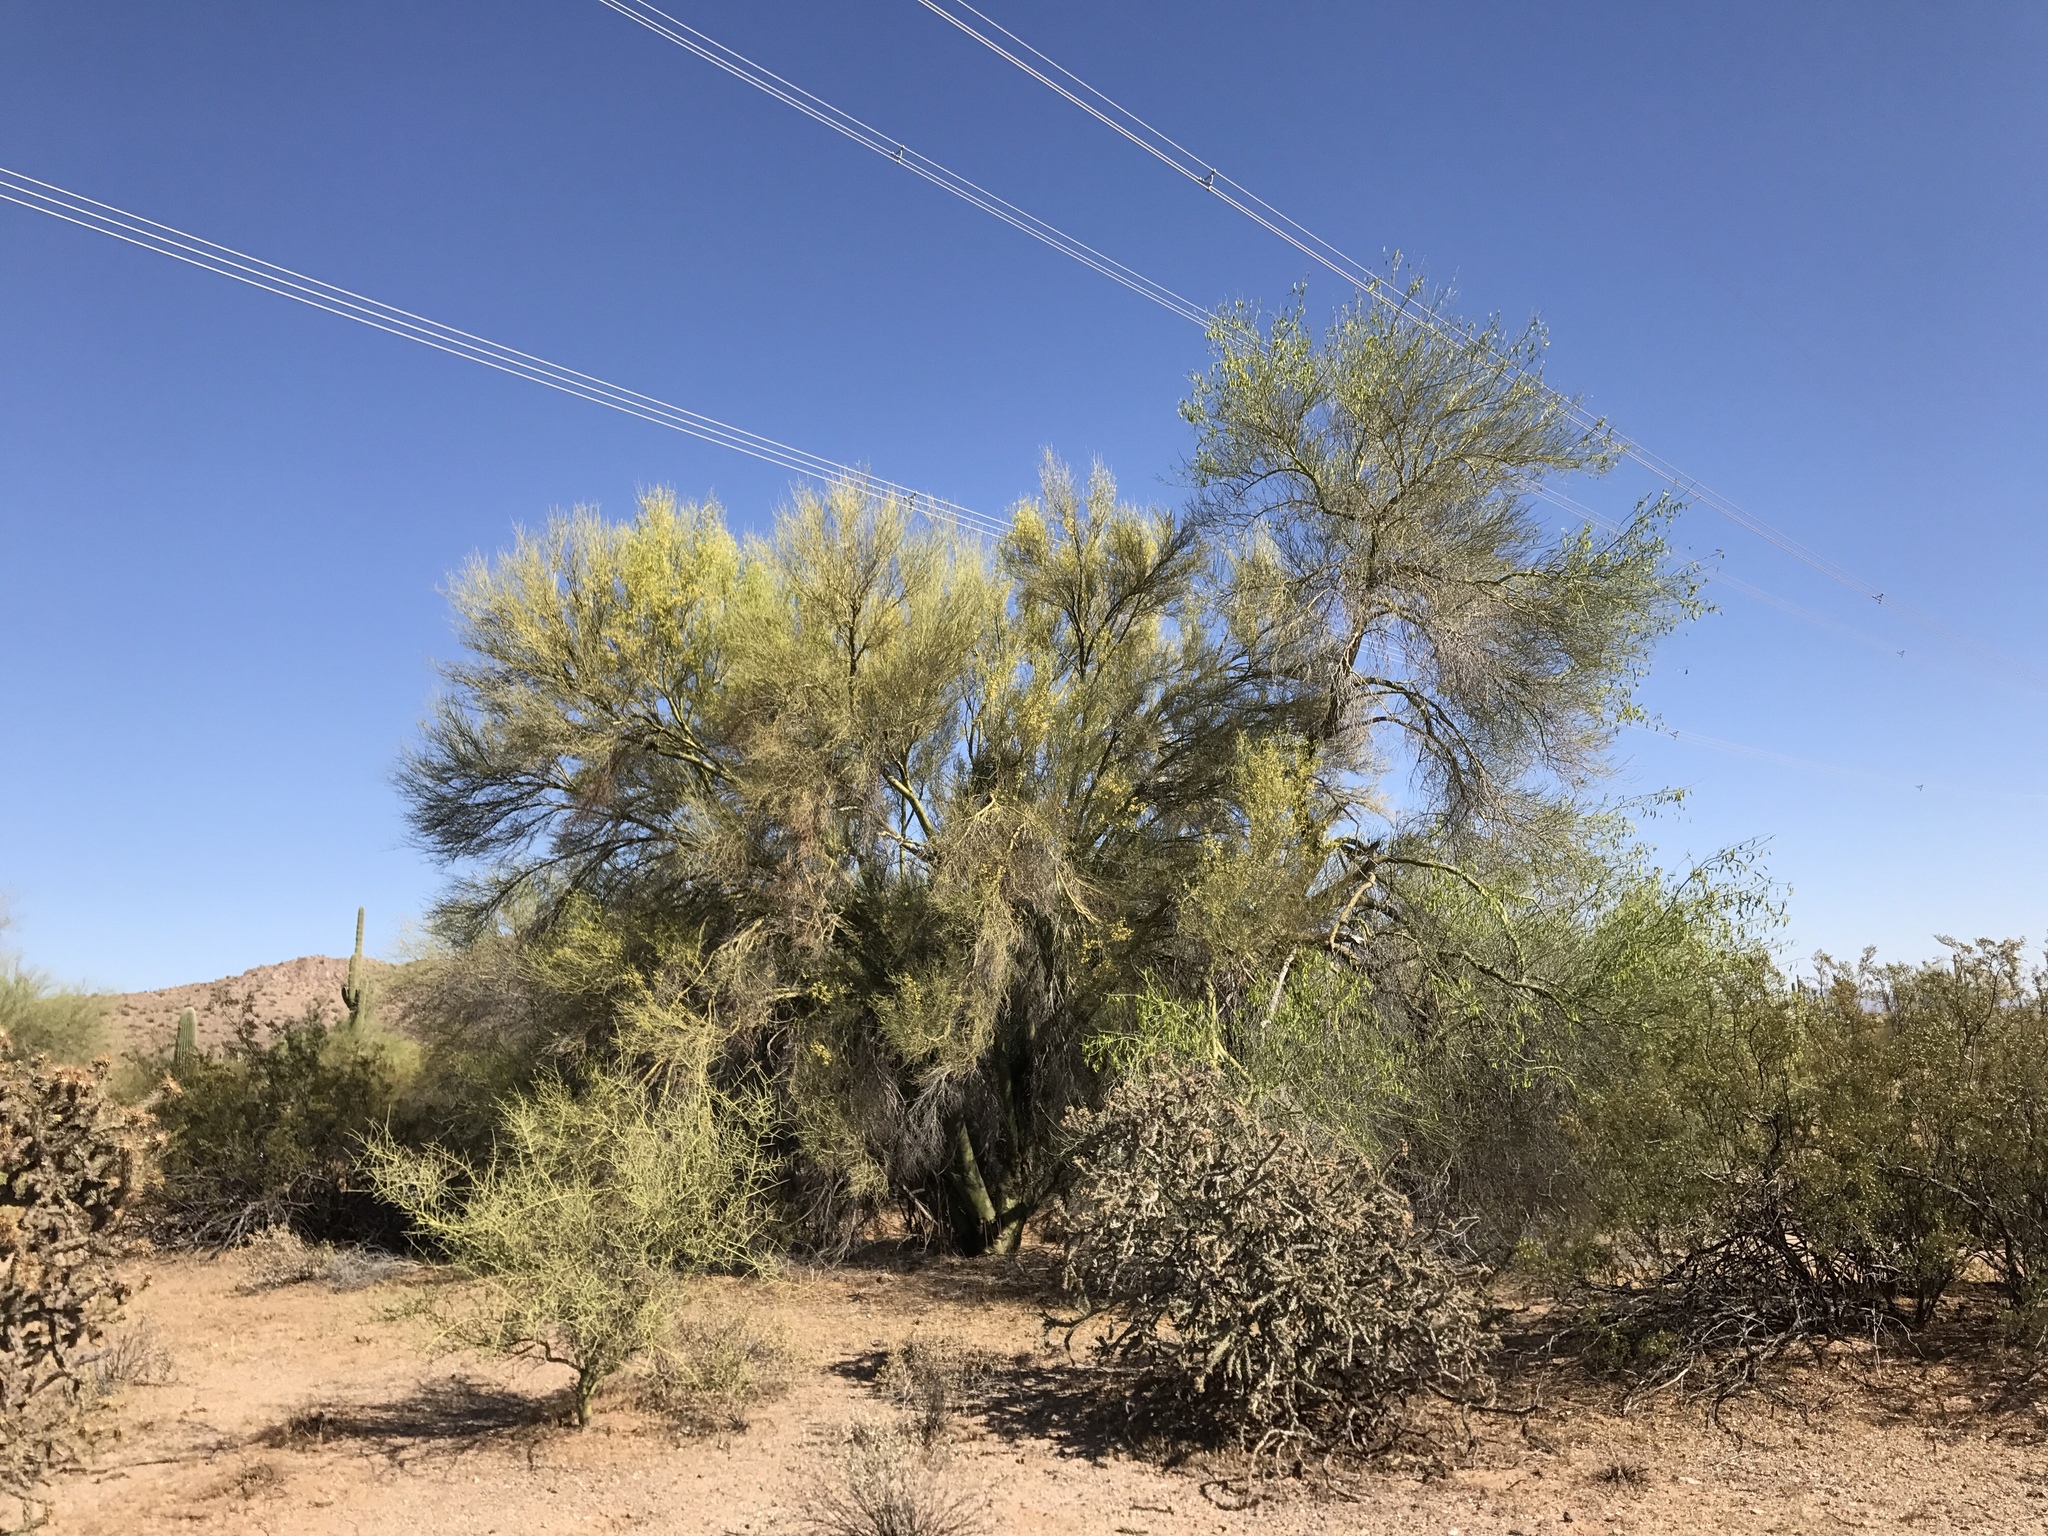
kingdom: Plantae
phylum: Tracheophyta
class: Magnoliopsida
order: Fabales
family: Fabaceae
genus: Parkinsonia
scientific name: Parkinsonia florida
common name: Blue paloverde
